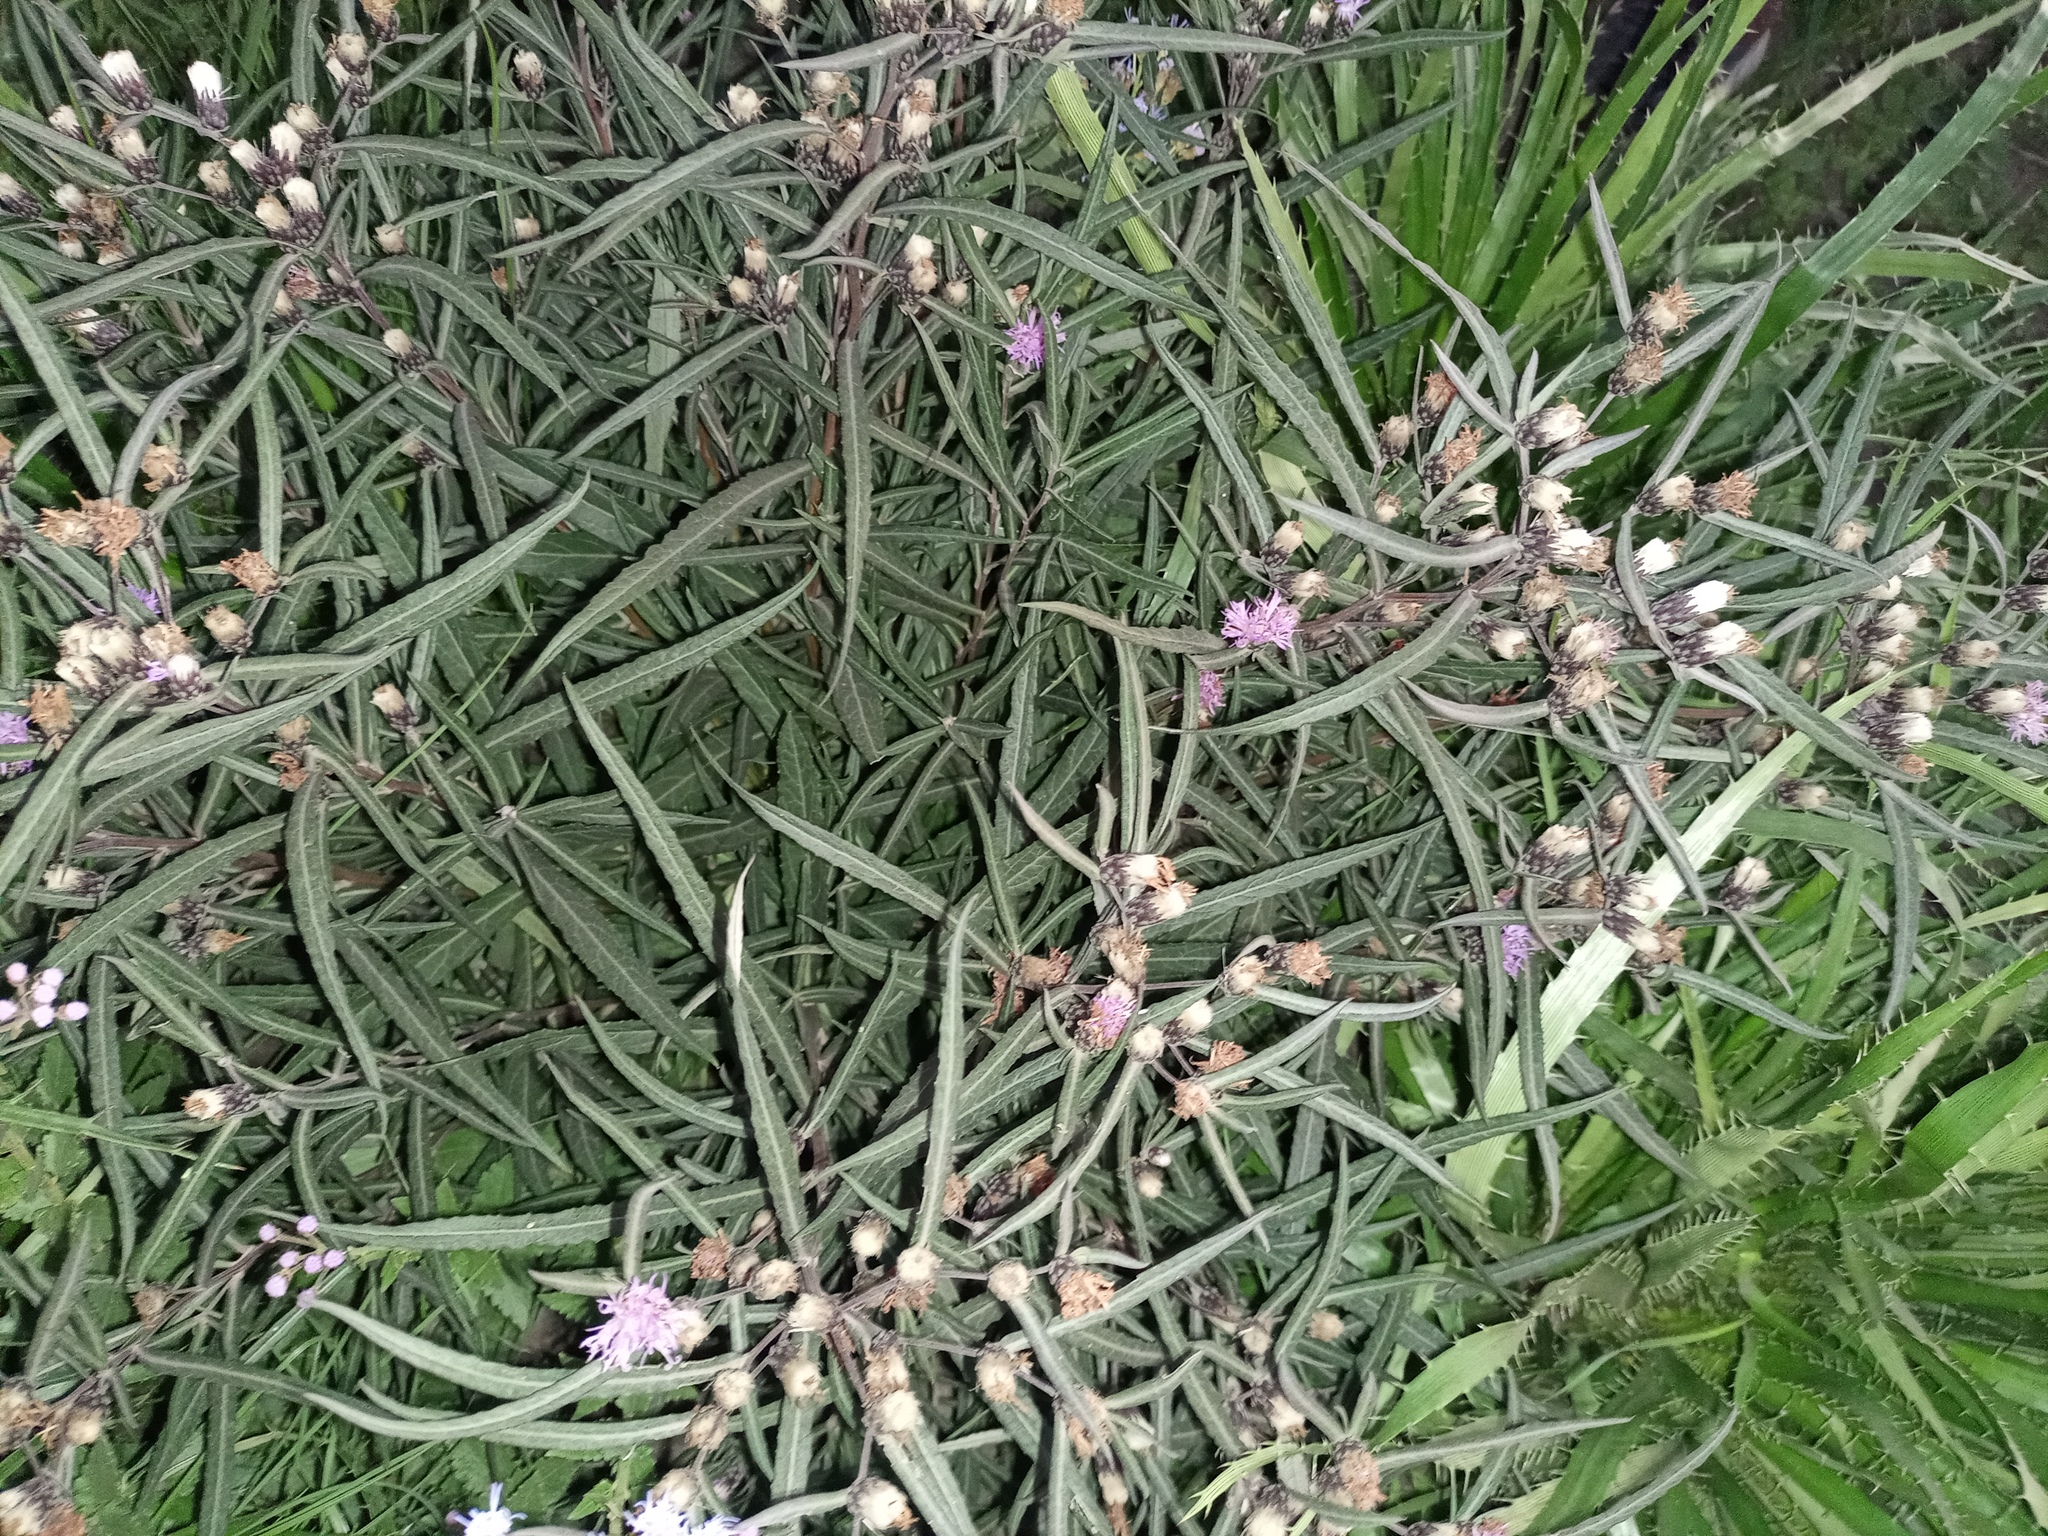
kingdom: Plantae
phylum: Tracheophyta
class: Magnoliopsida
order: Asterales
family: Asteraceae
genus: Lessingianthus
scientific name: Lessingianthus rubricaulis
